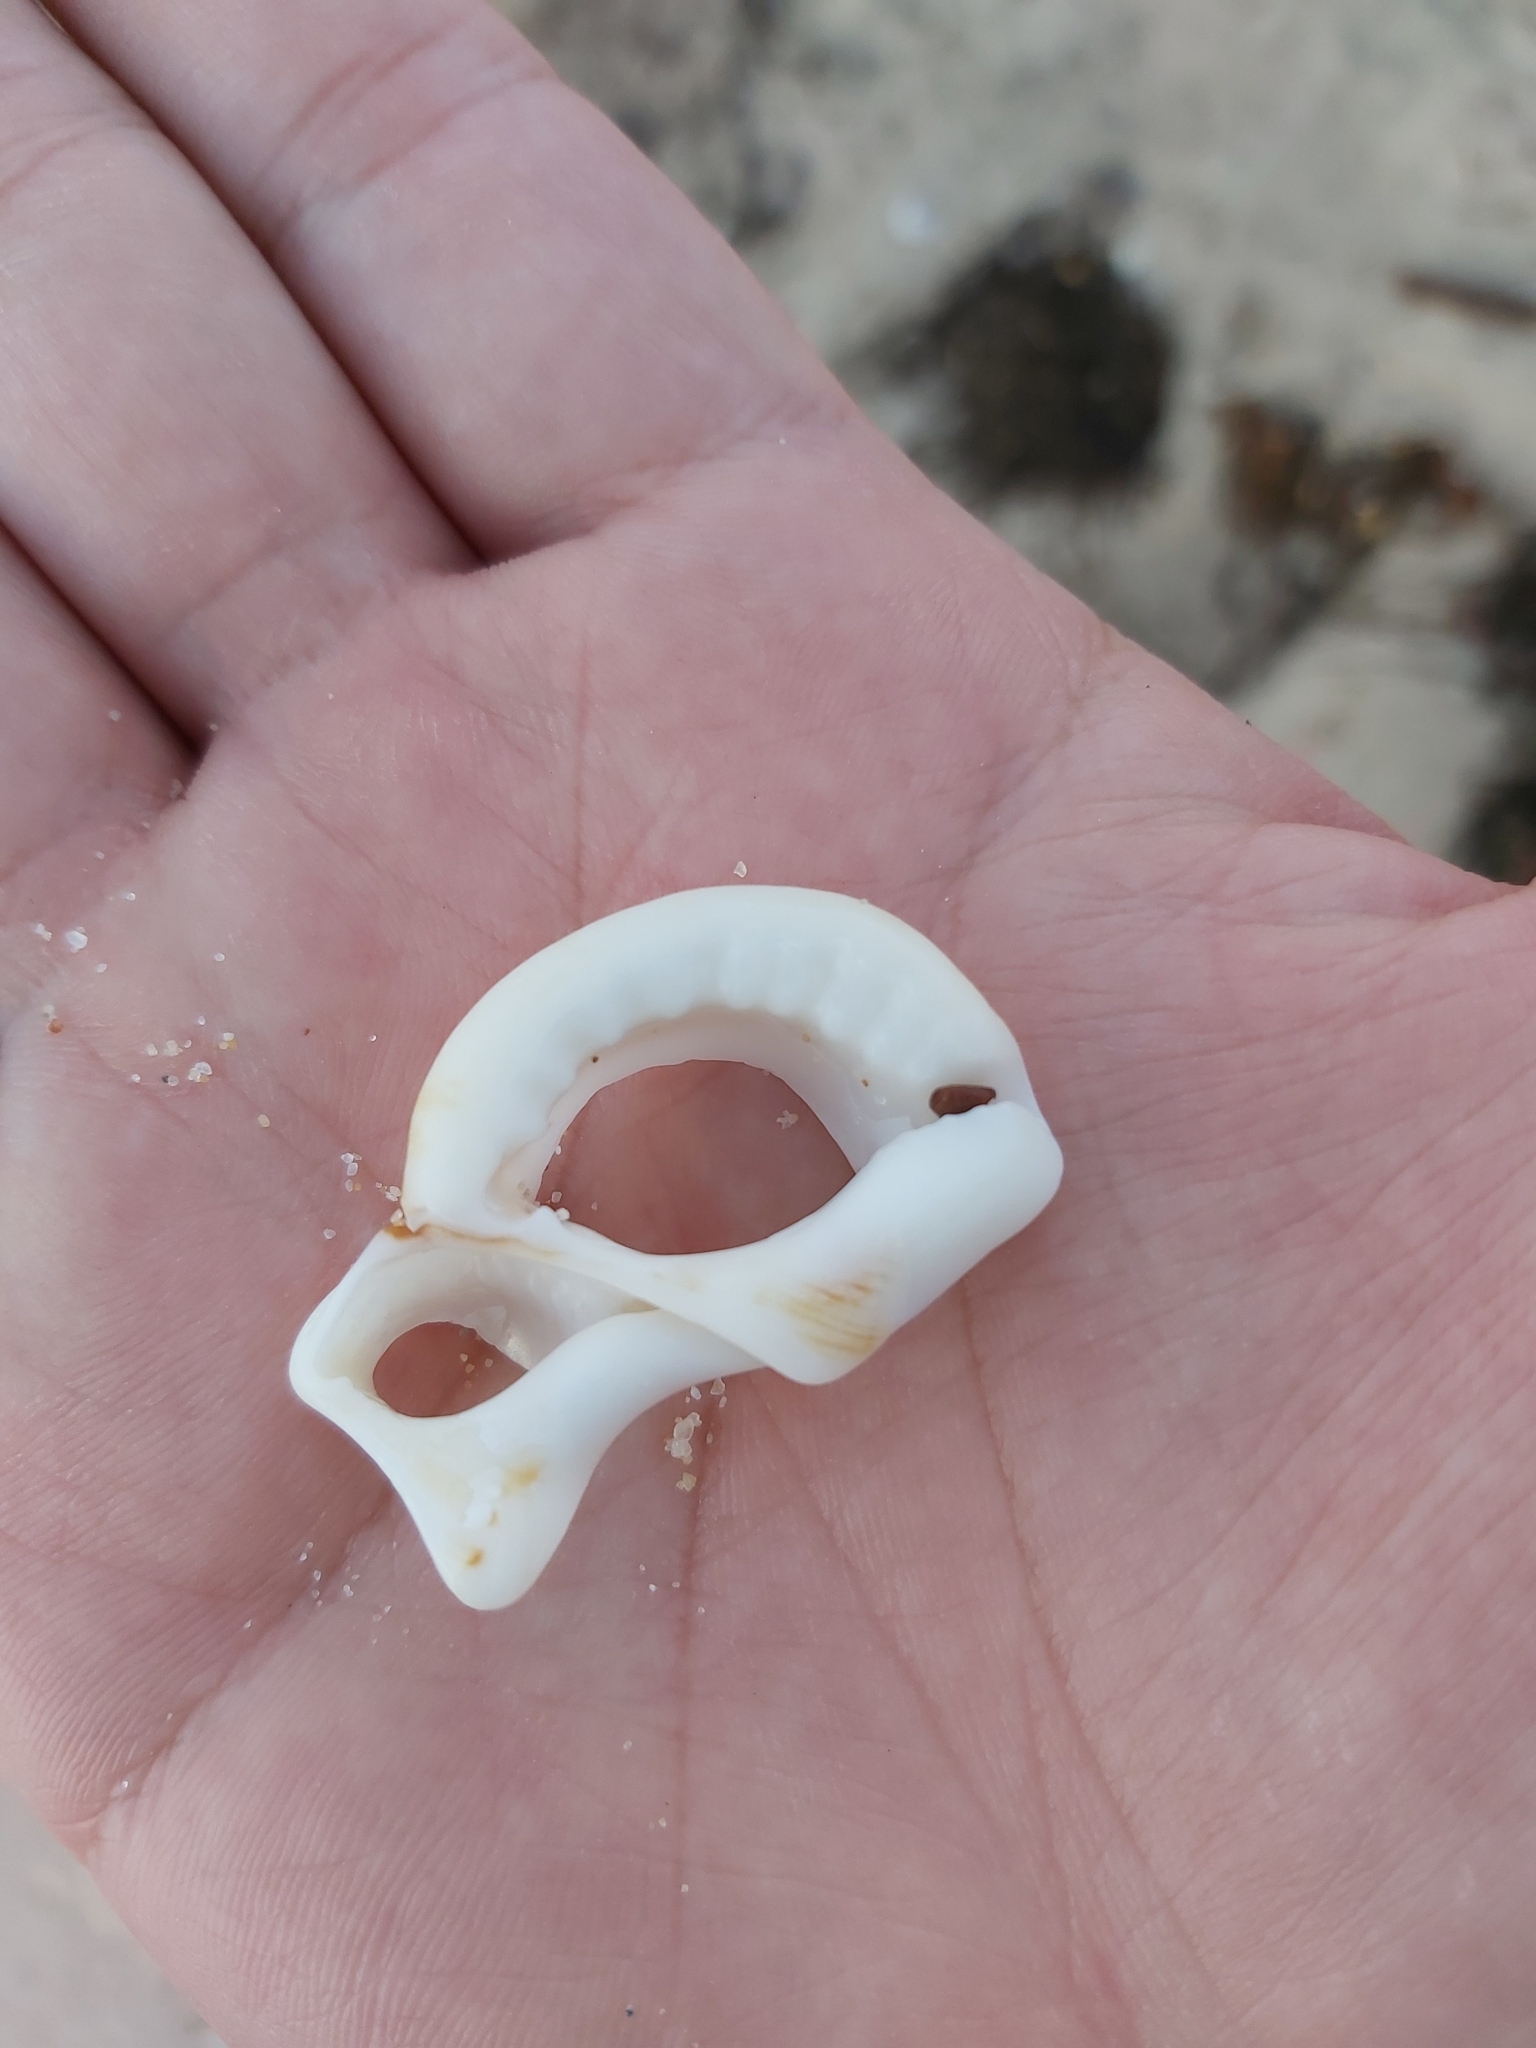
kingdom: Animalia
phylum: Mollusca
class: Gastropoda
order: Littorinimorpha
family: Ranellidae
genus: Ranella
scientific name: Ranella australasia
